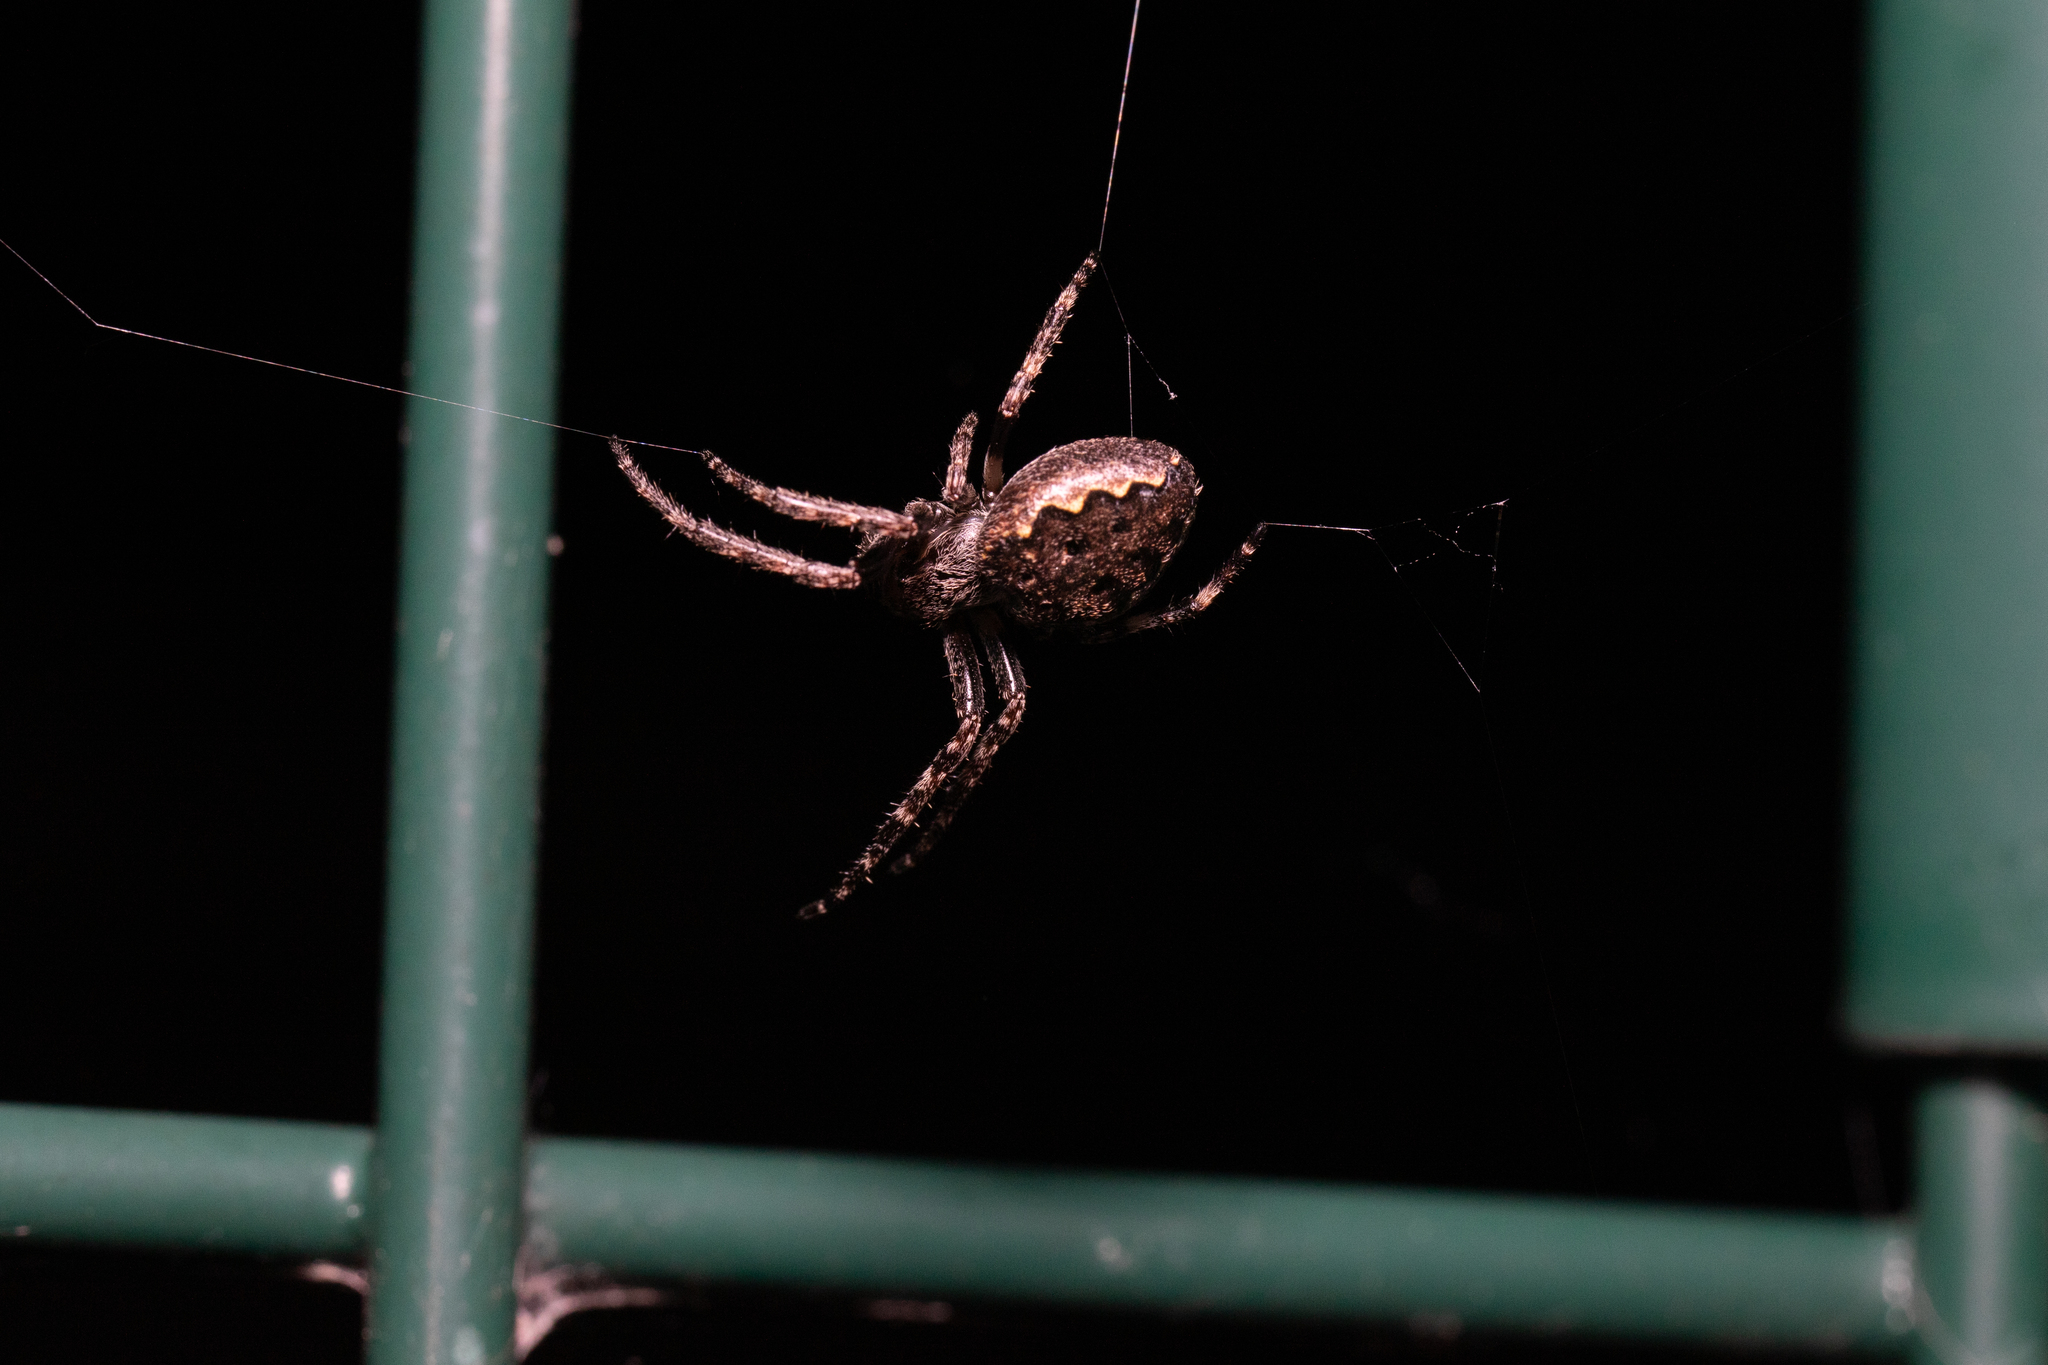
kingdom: Animalia
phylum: Arthropoda
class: Arachnida
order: Araneae
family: Araneidae
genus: Nuctenea
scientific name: Nuctenea umbratica
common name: Toad spider
